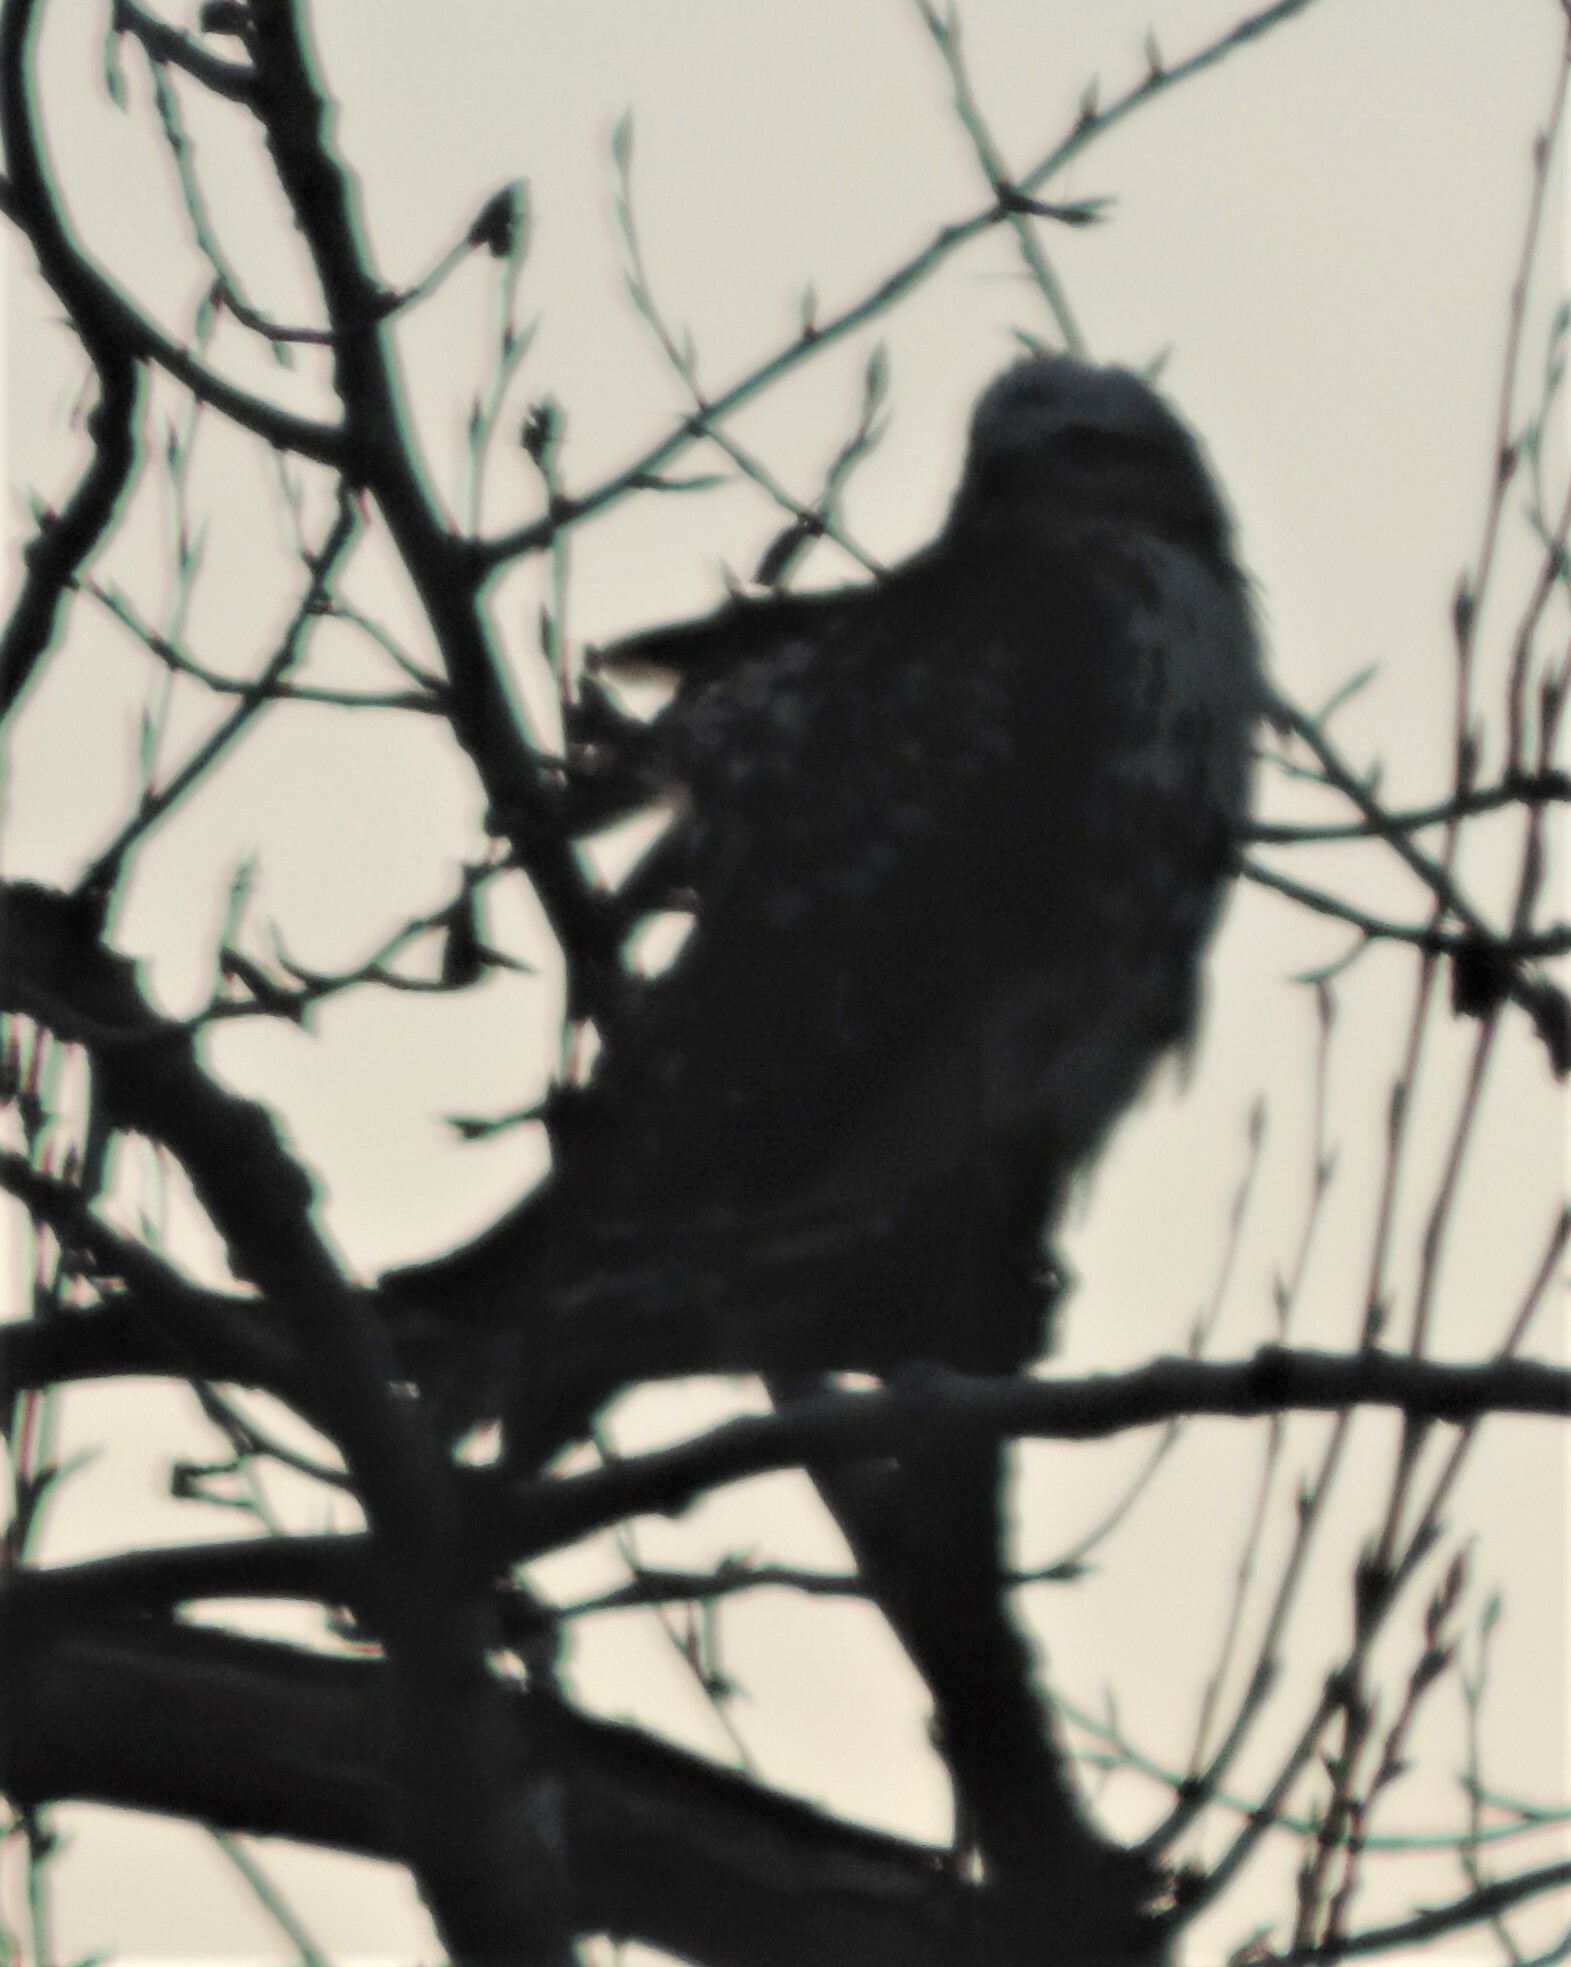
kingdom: Animalia
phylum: Chordata
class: Aves
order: Accipitriformes
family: Accipitridae
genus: Buteo
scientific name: Buteo jamaicensis
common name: Red-tailed hawk
